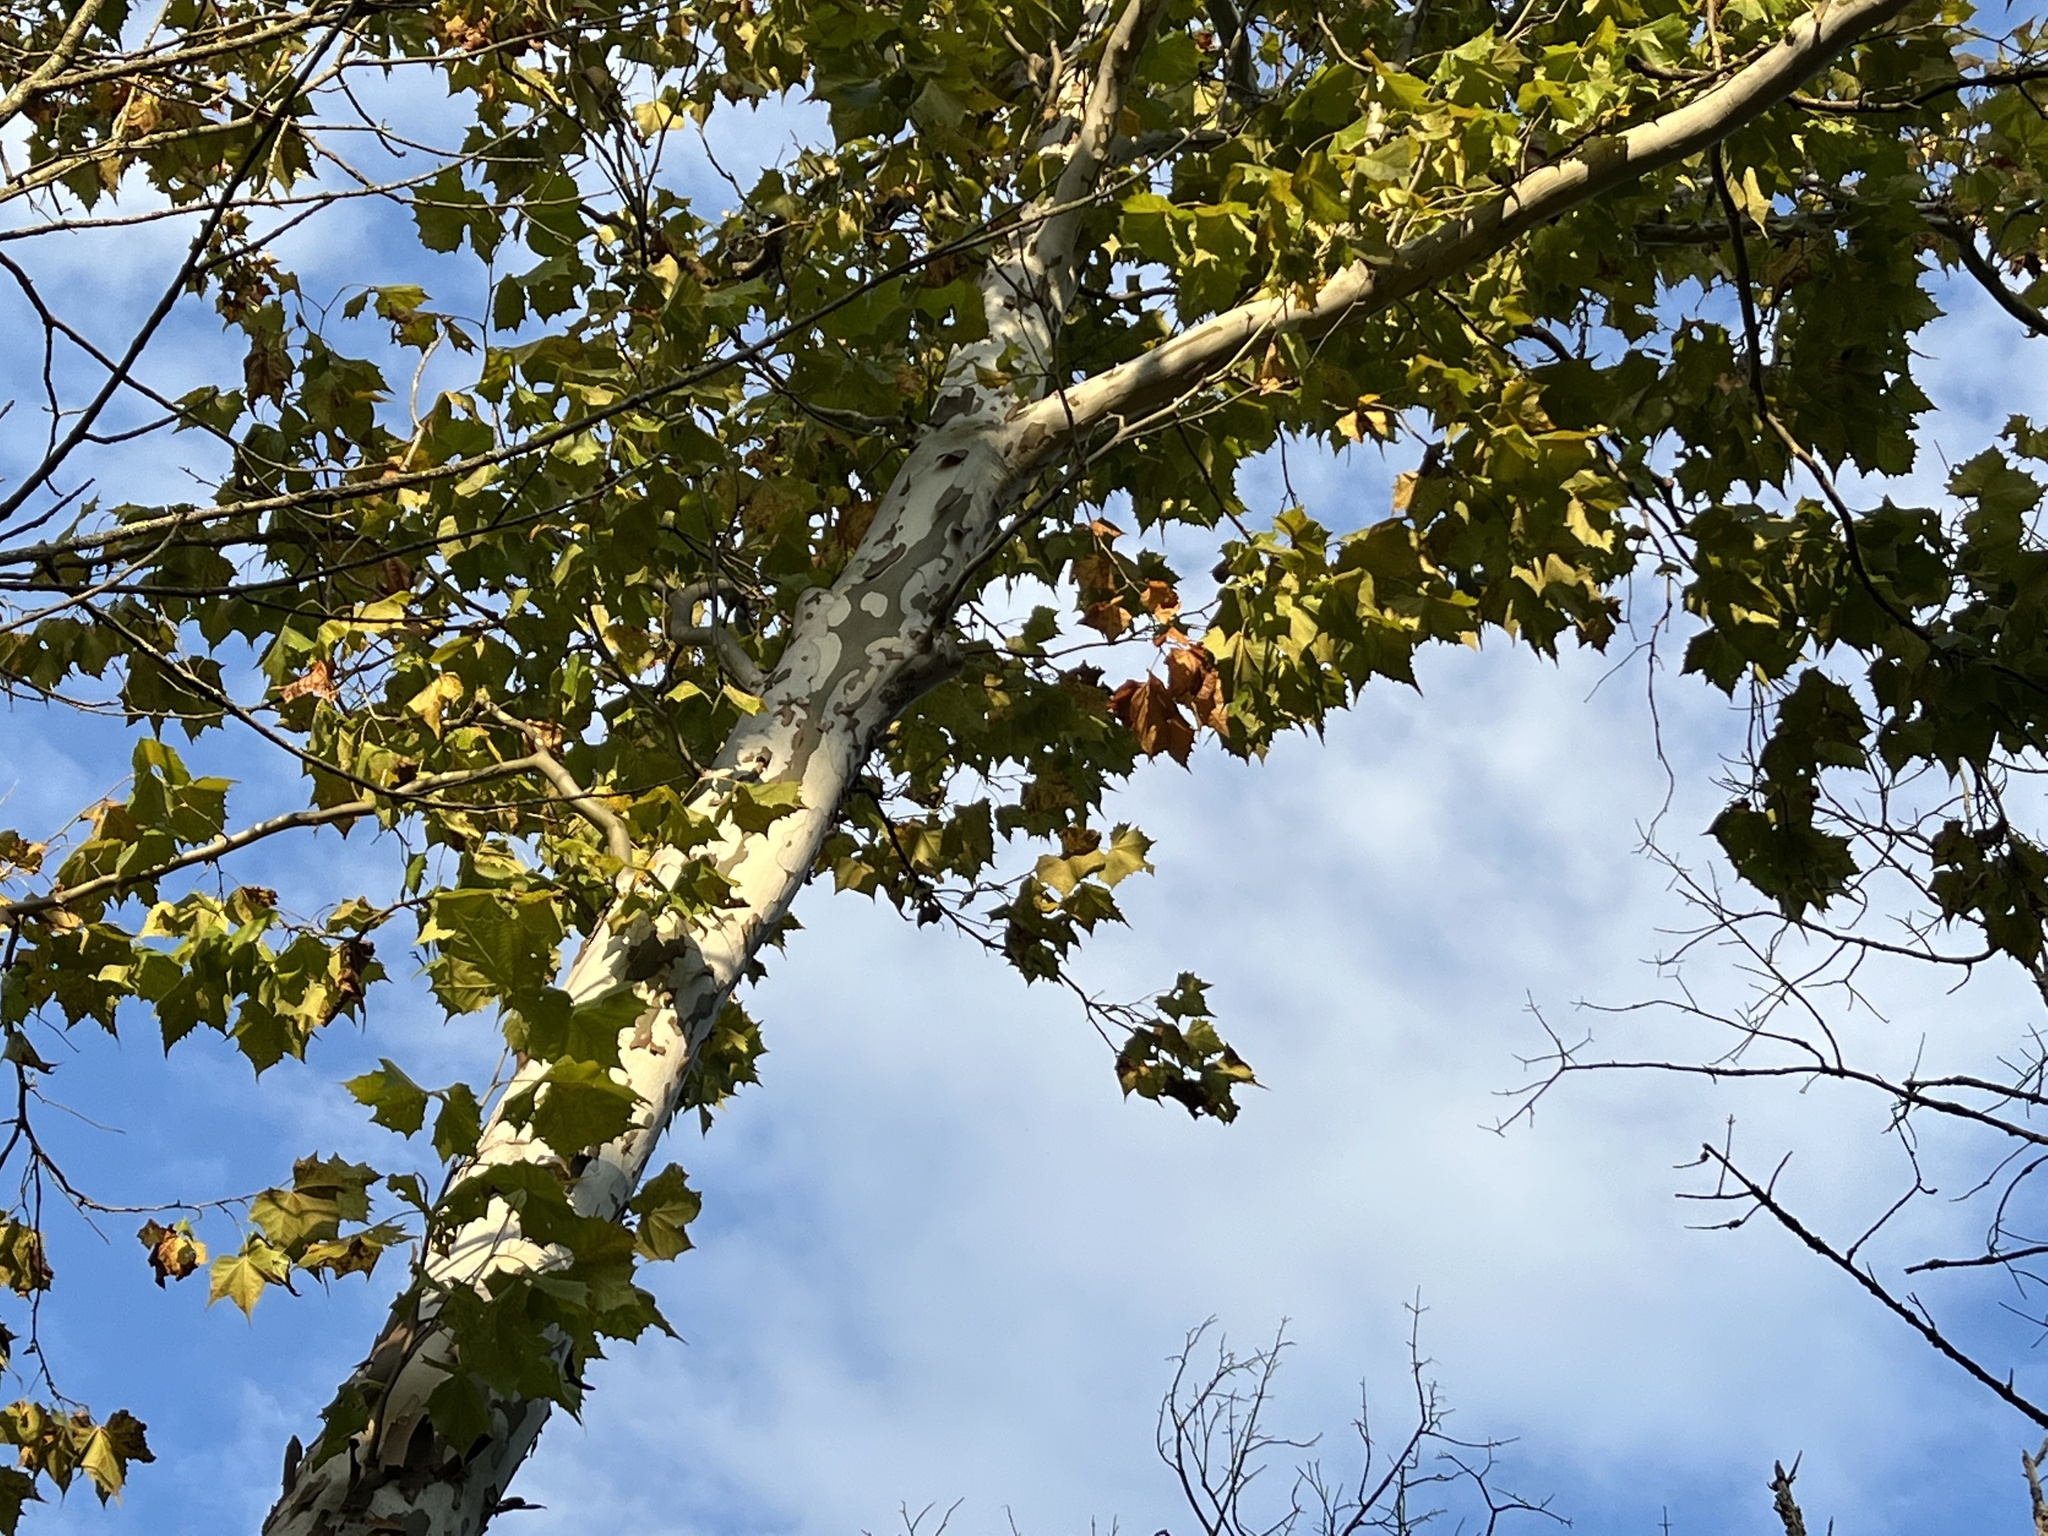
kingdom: Plantae
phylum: Tracheophyta
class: Magnoliopsida
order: Proteales
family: Platanaceae
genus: Platanus
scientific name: Platanus occidentalis
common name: American sycamore
